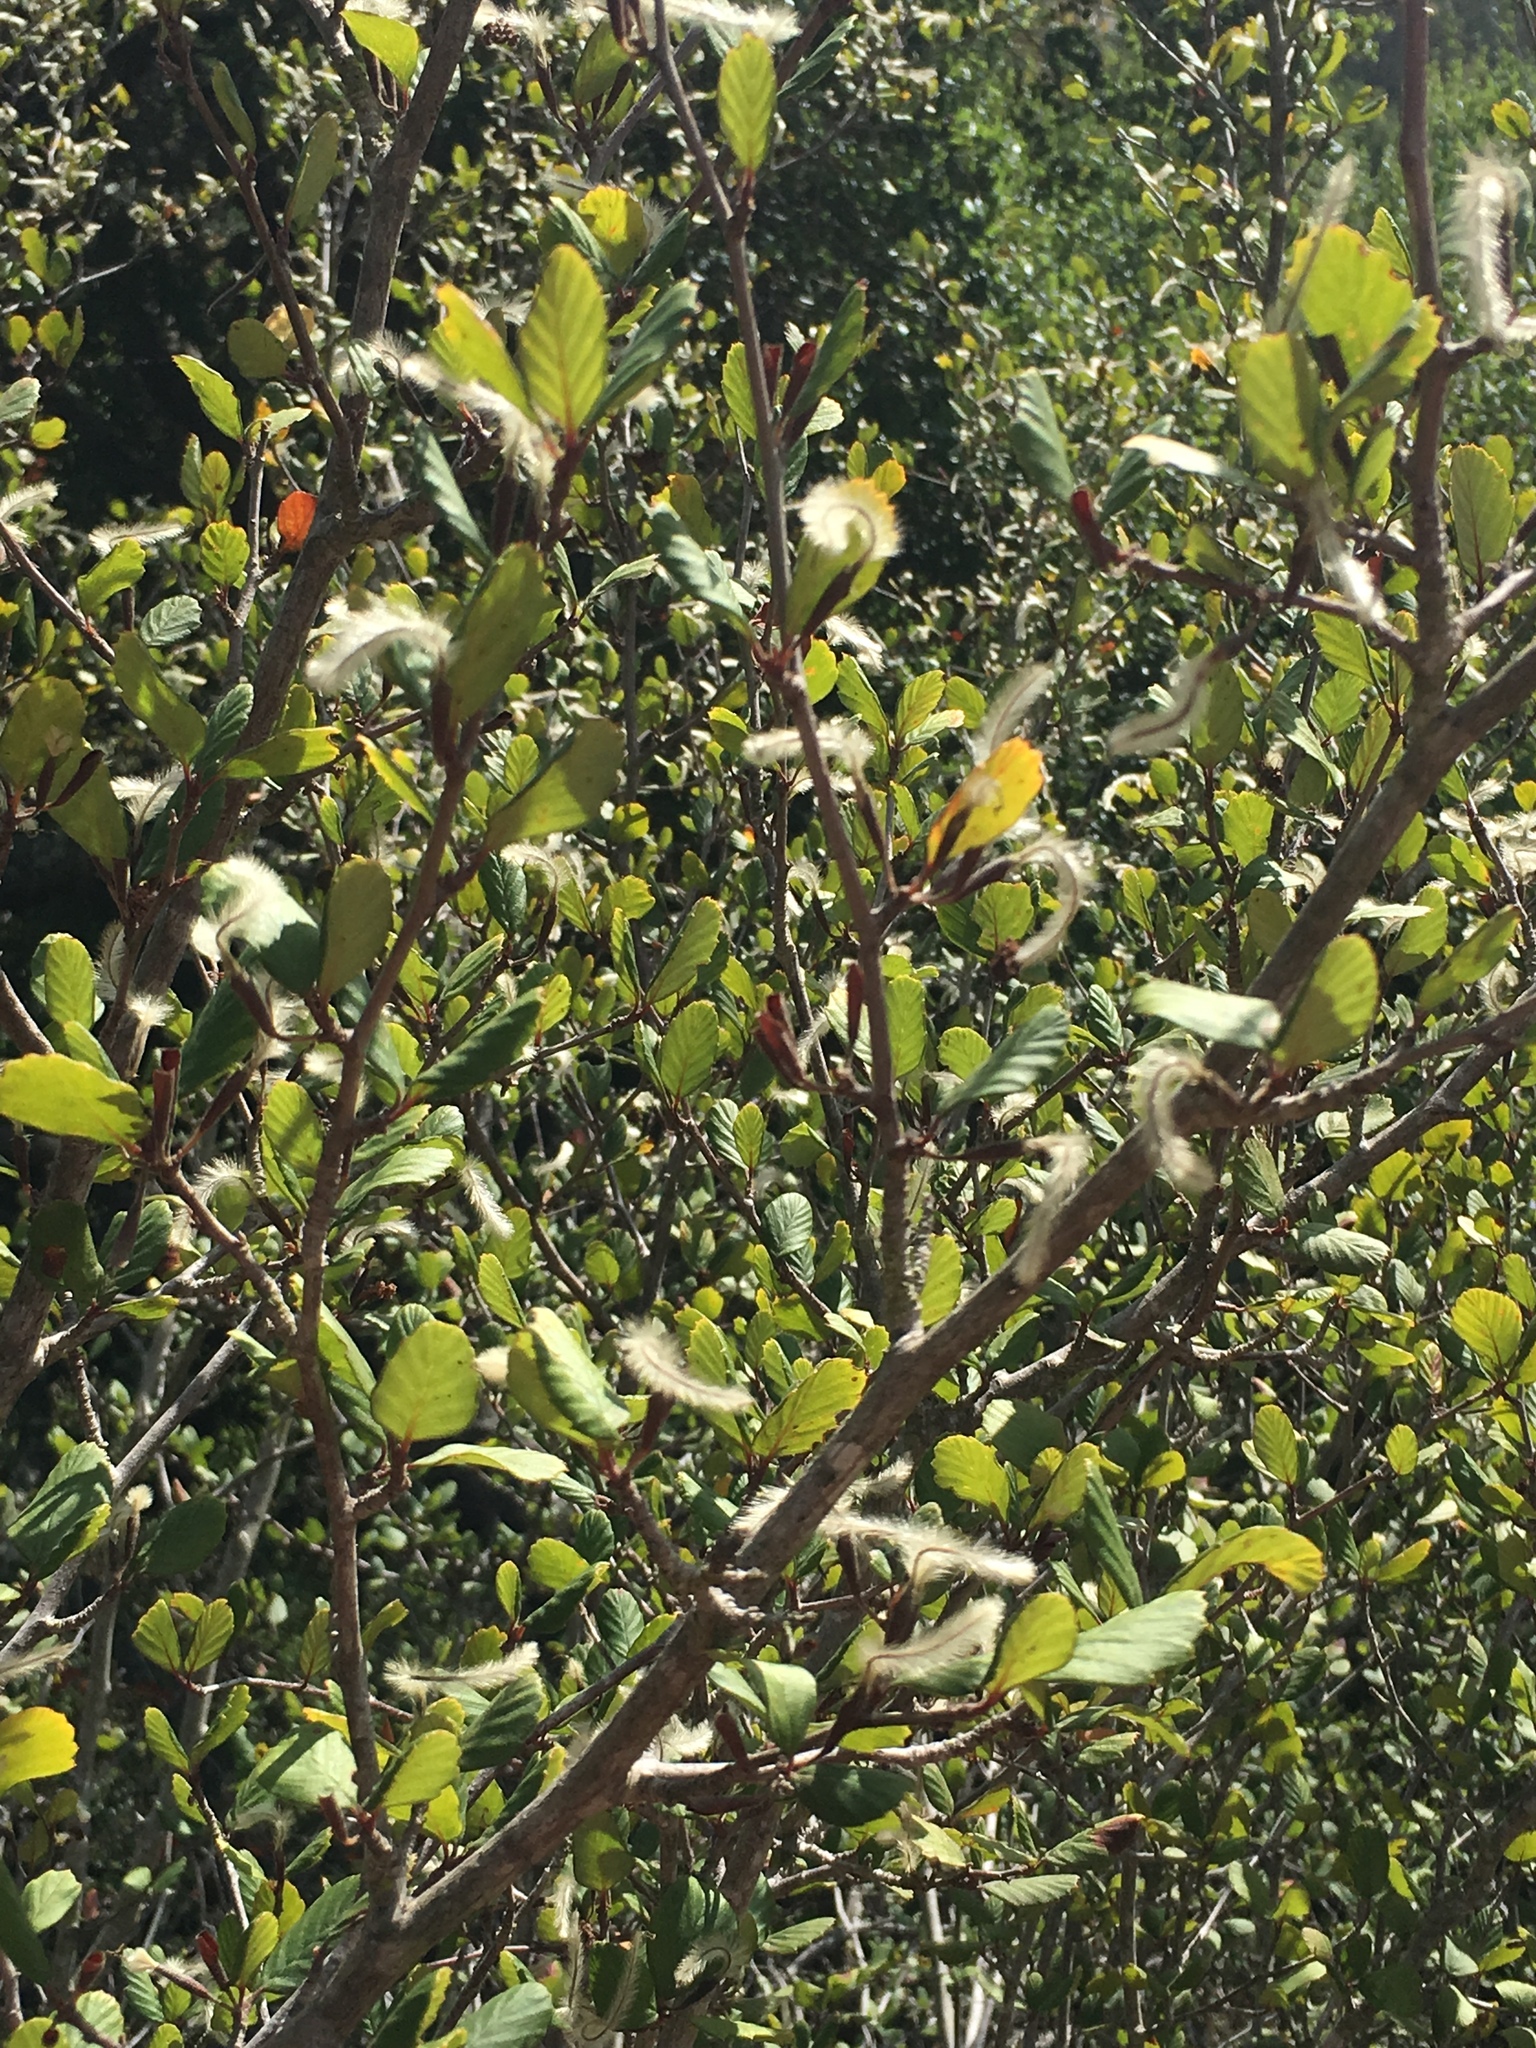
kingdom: Plantae
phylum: Tracheophyta
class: Magnoliopsida
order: Rosales
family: Rosaceae
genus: Cercocarpus
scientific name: Cercocarpus betuloides
